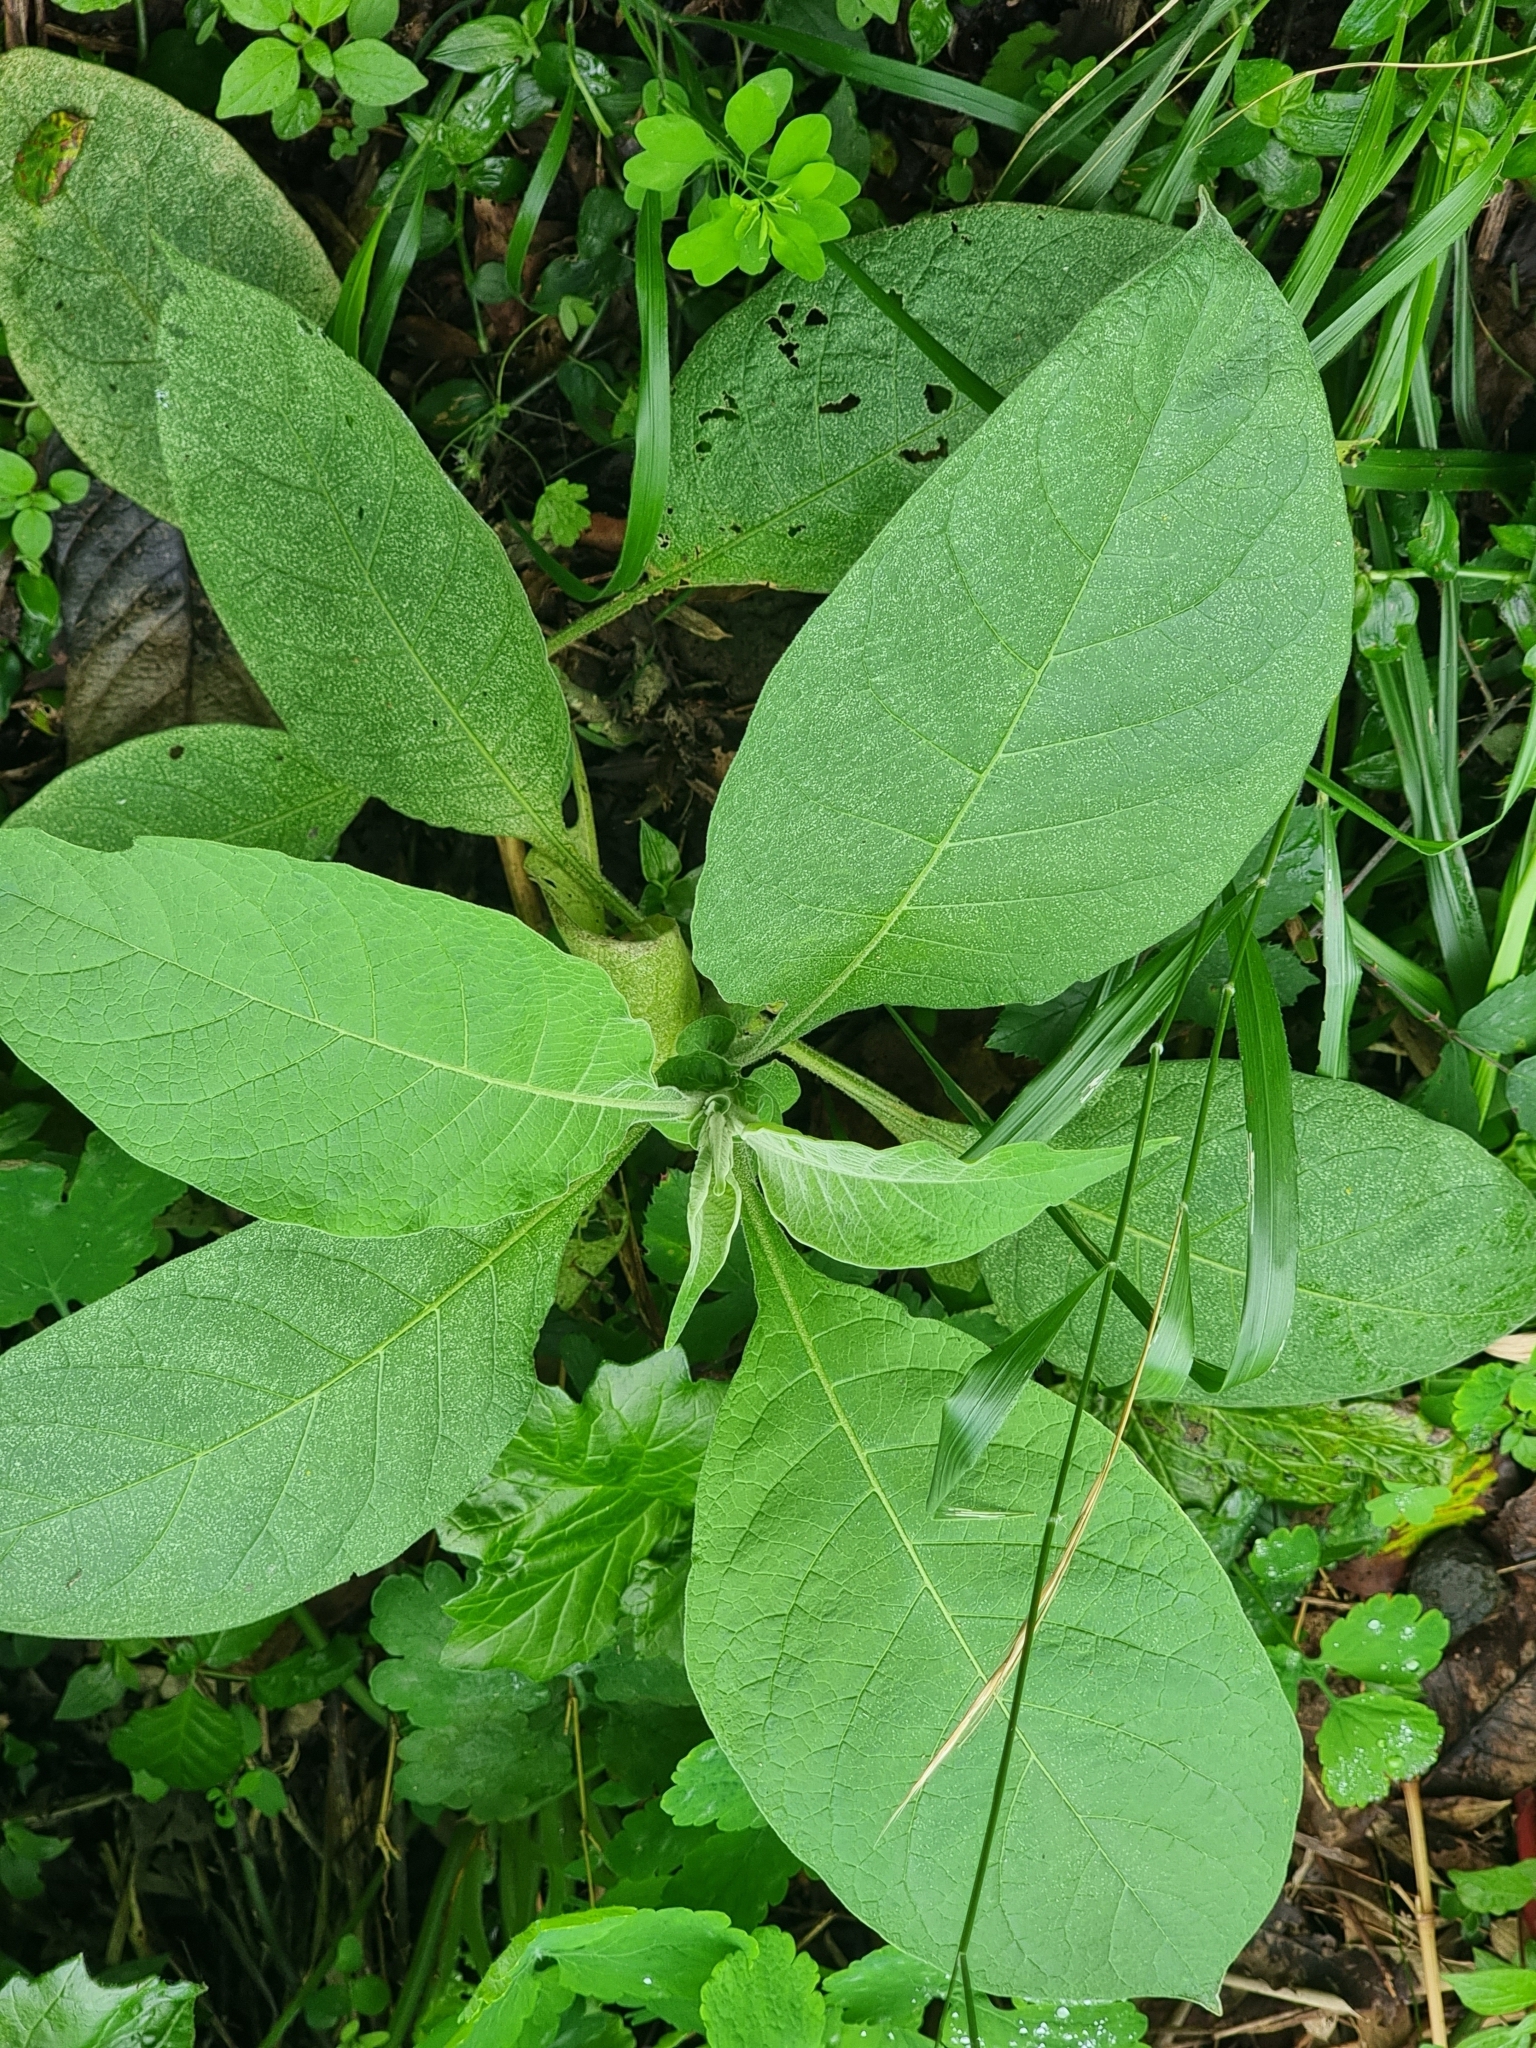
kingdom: Plantae
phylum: Tracheophyta
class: Magnoliopsida
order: Solanales
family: Solanaceae
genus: Solanum
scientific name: Solanum mauritianum
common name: Earleaf nightshade
